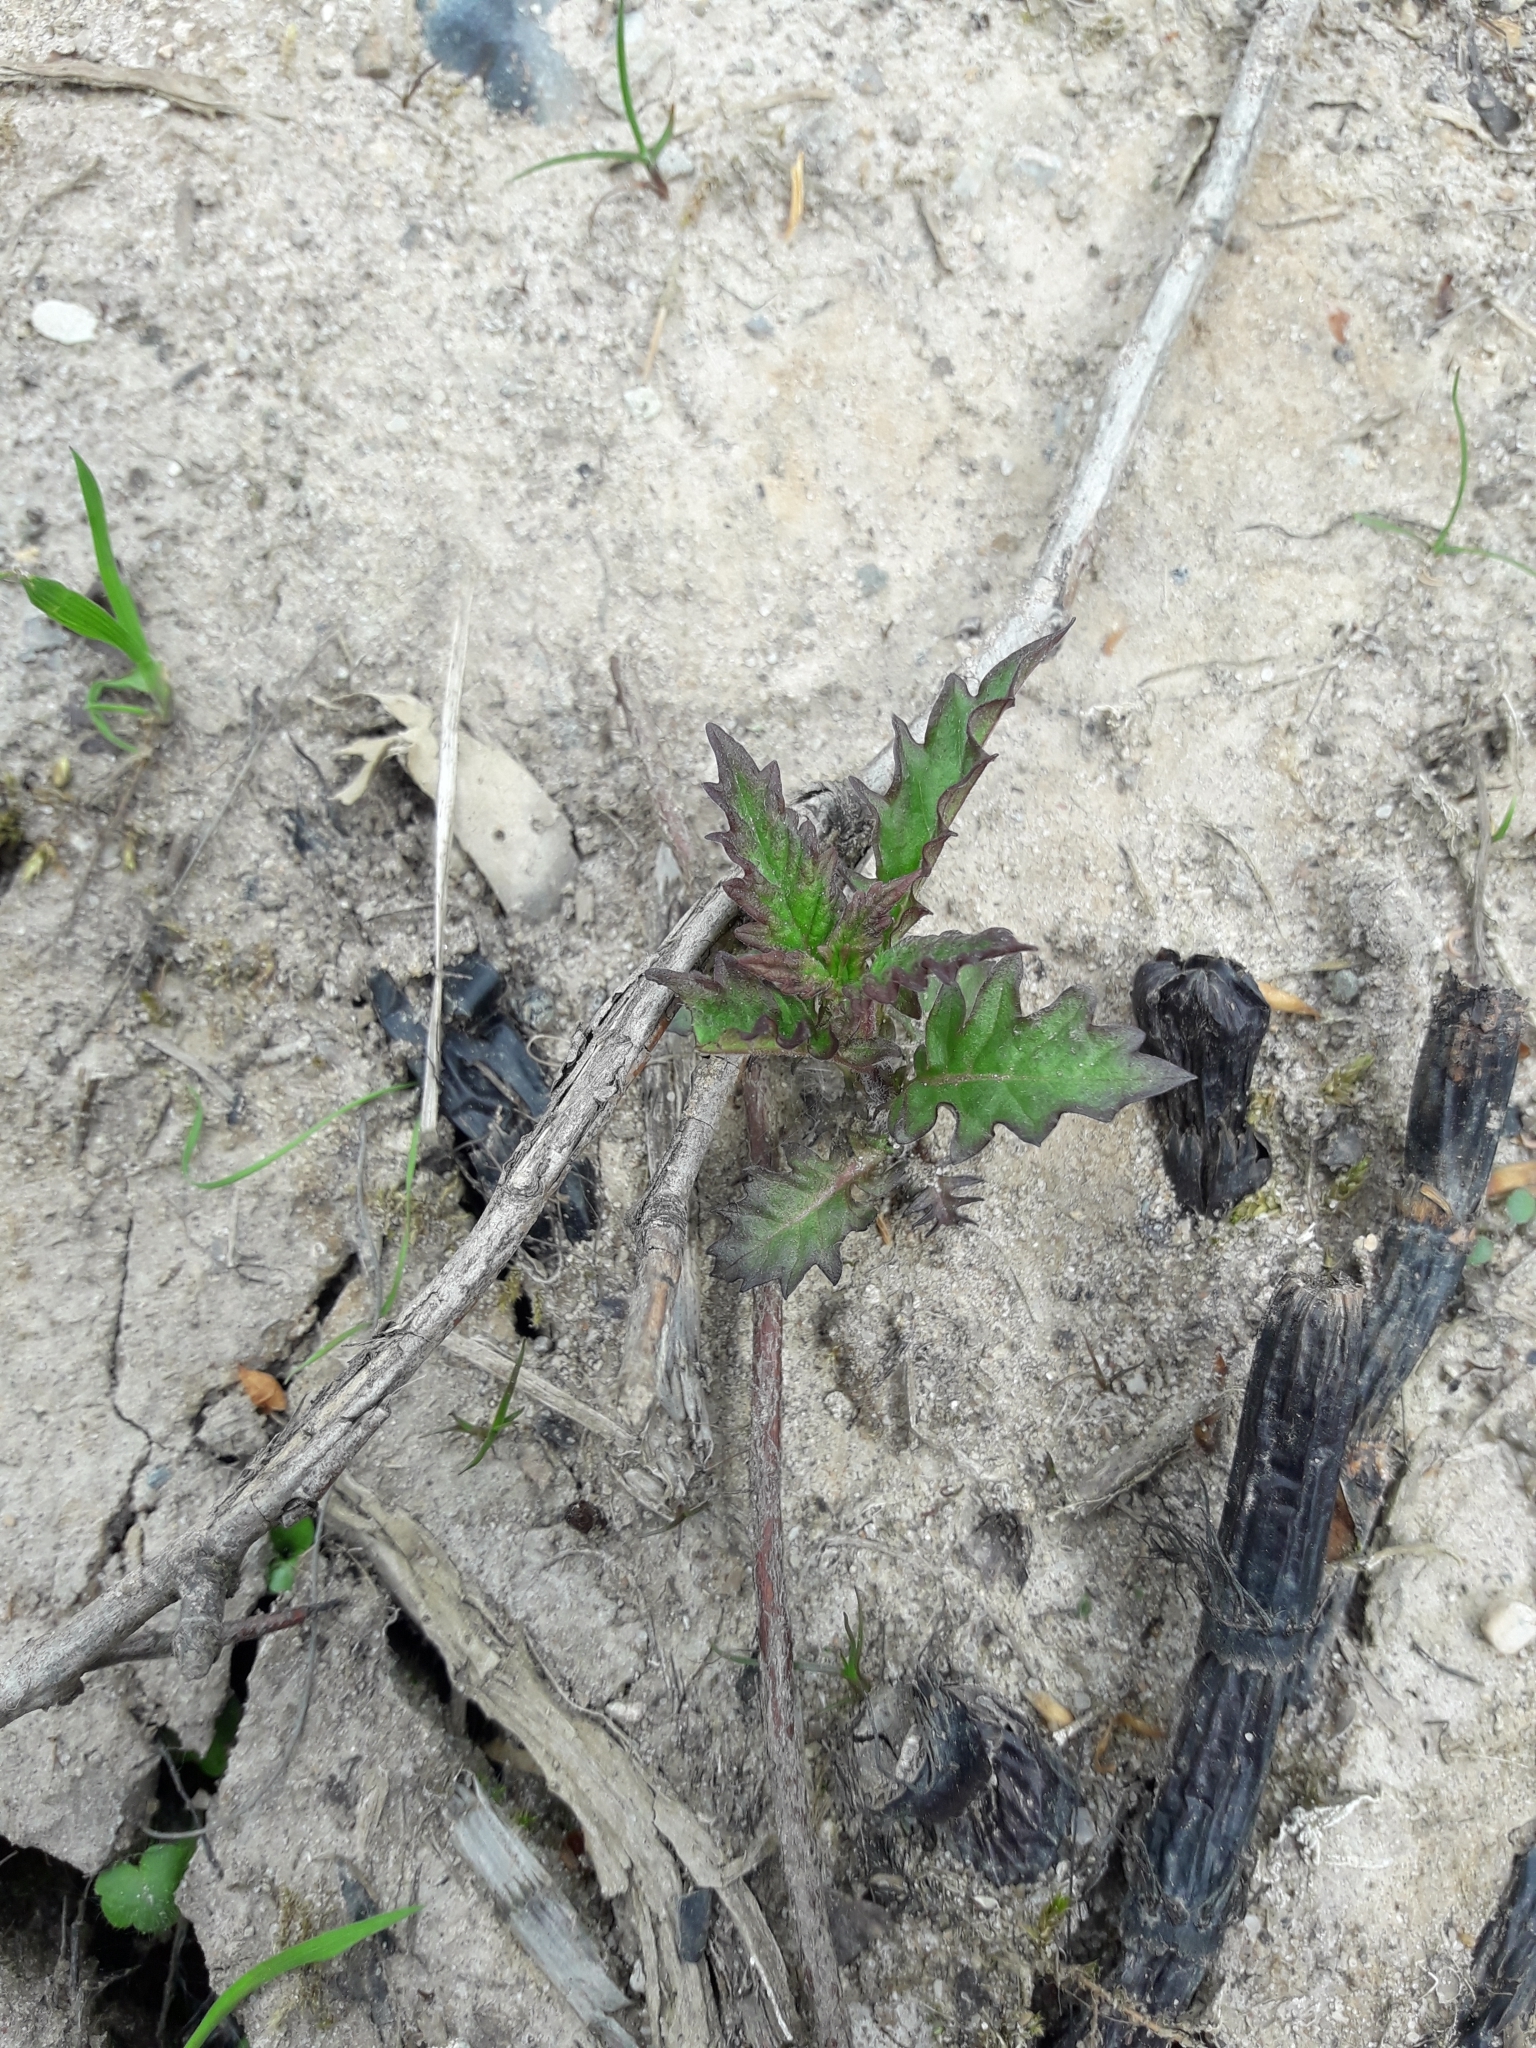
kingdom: Plantae
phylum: Tracheophyta
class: Magnoliopsida
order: Lamiales
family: Lamiaceae
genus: Lycopus
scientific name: Lycopus europaeus
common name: European bugleweed
